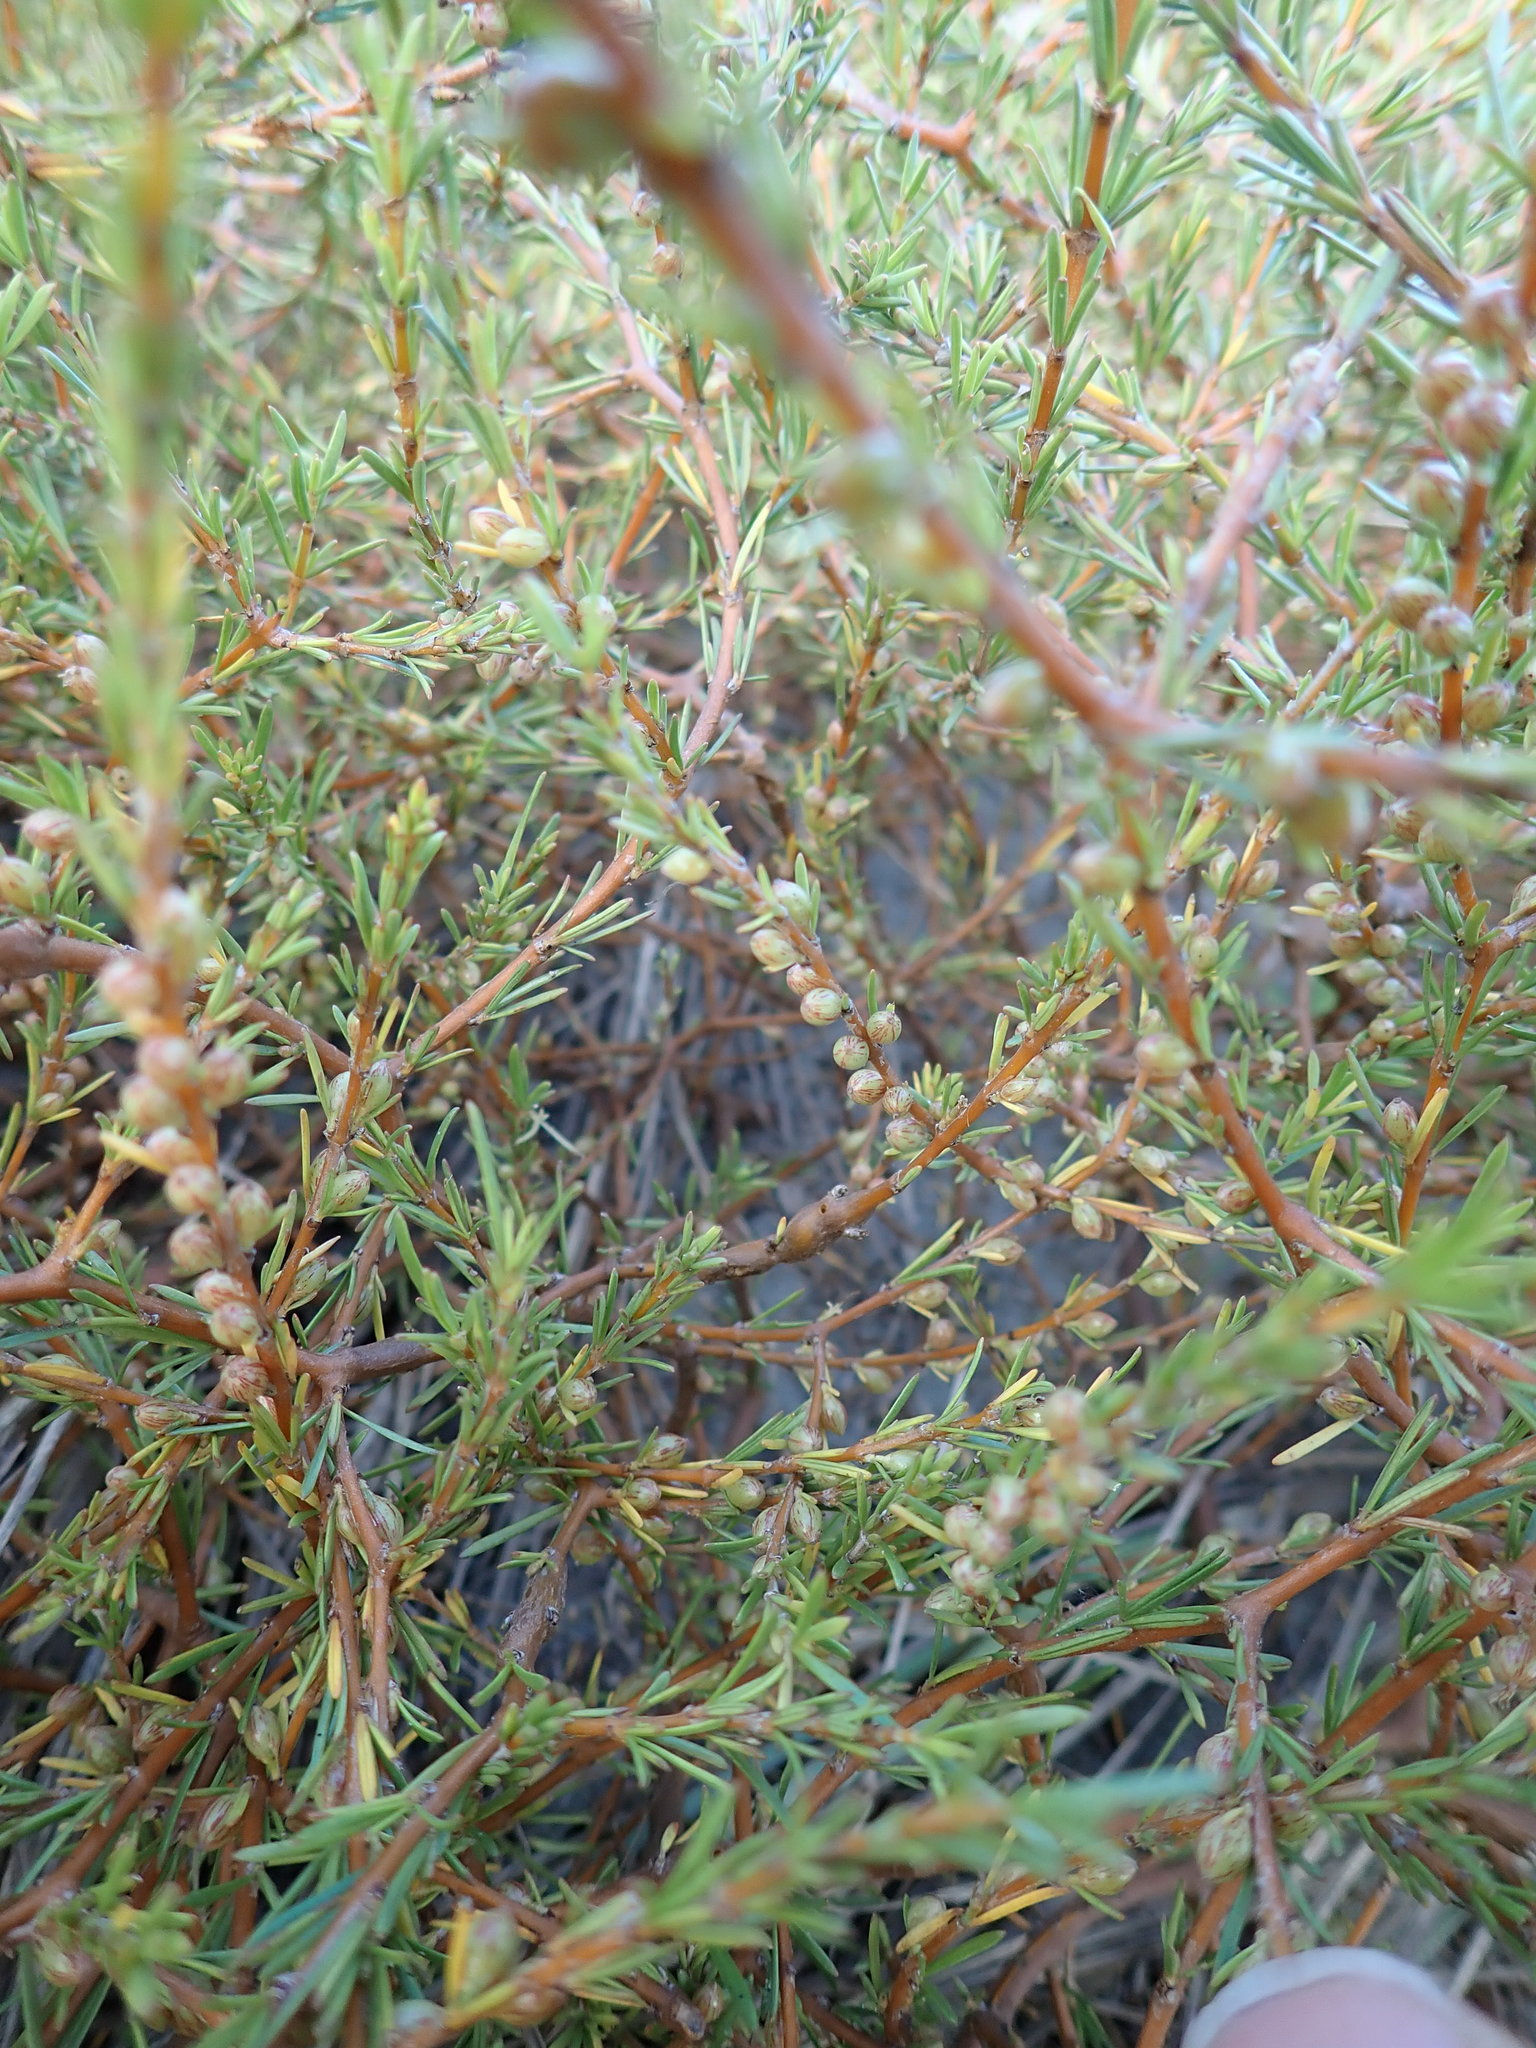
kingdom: Plantae
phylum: Tracheophyta
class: Magnoliopsida
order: Gentianales
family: Rubiaceae
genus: Coprosma
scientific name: Coprosma acerosa
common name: Sand coprosma
